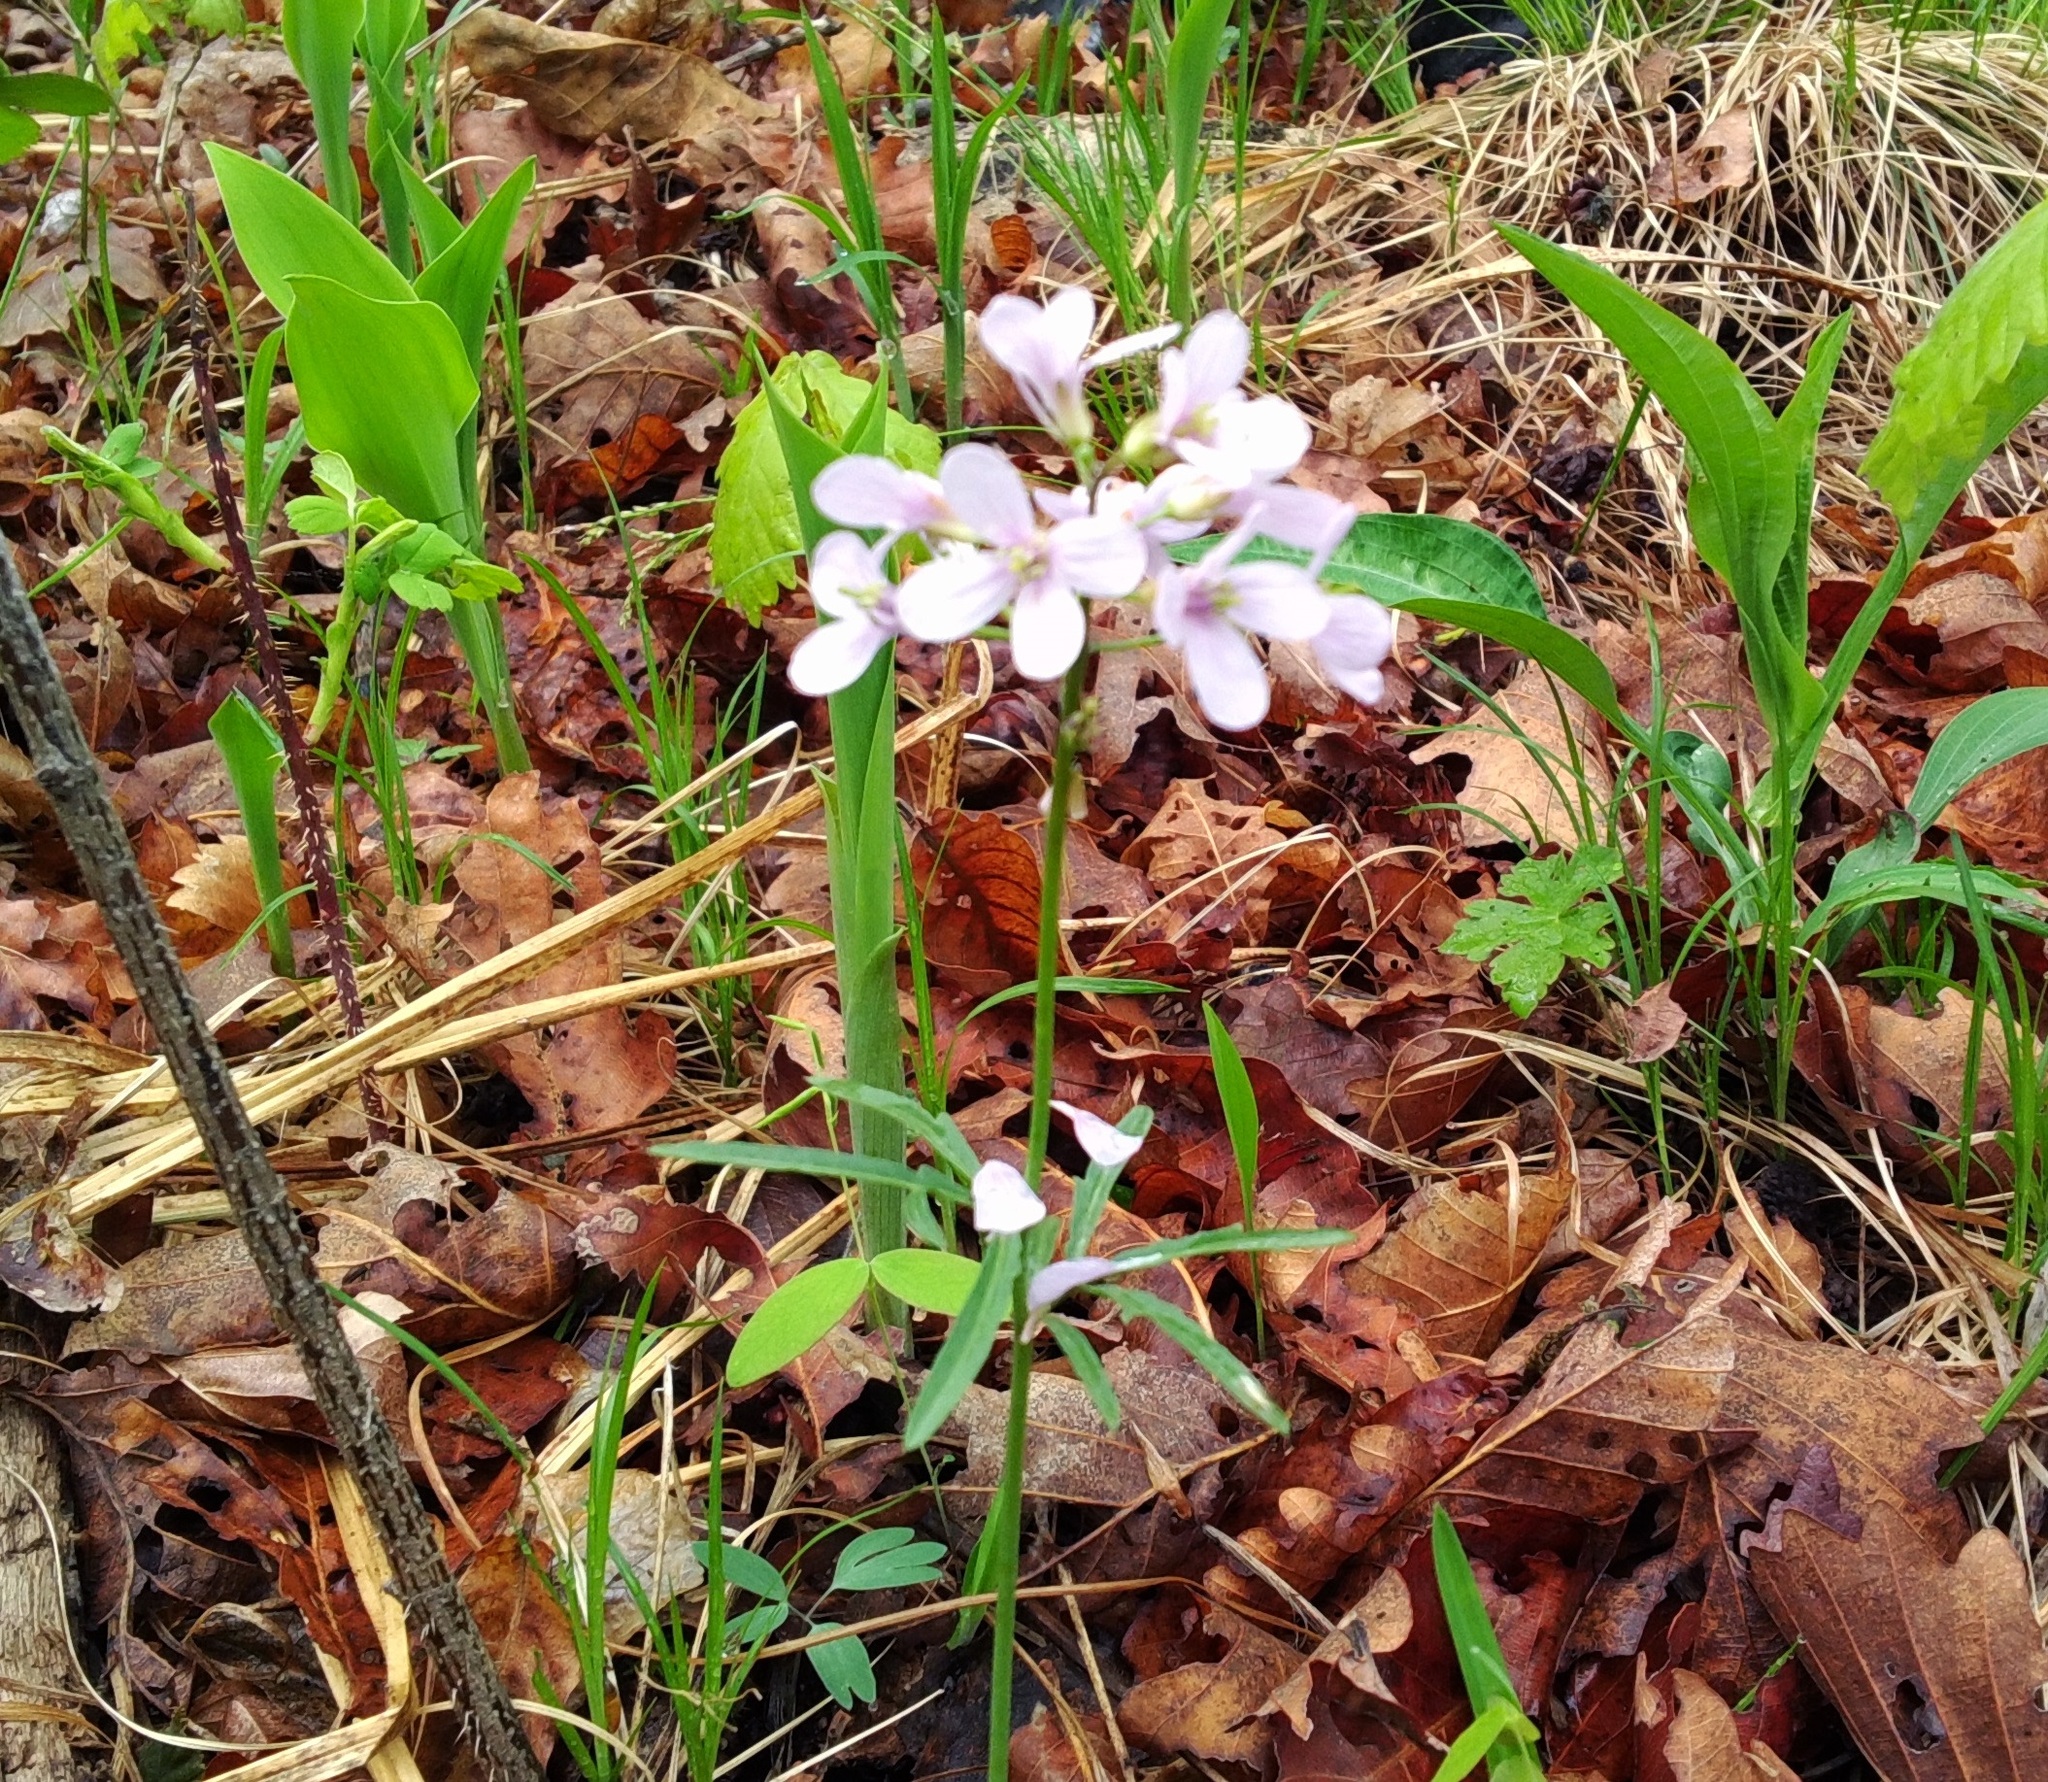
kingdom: Plantae
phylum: Tracheophyta
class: Magnoliopsida
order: Brassicales
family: Brassicaceae
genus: Cardamine
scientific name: Cardamine trifida
